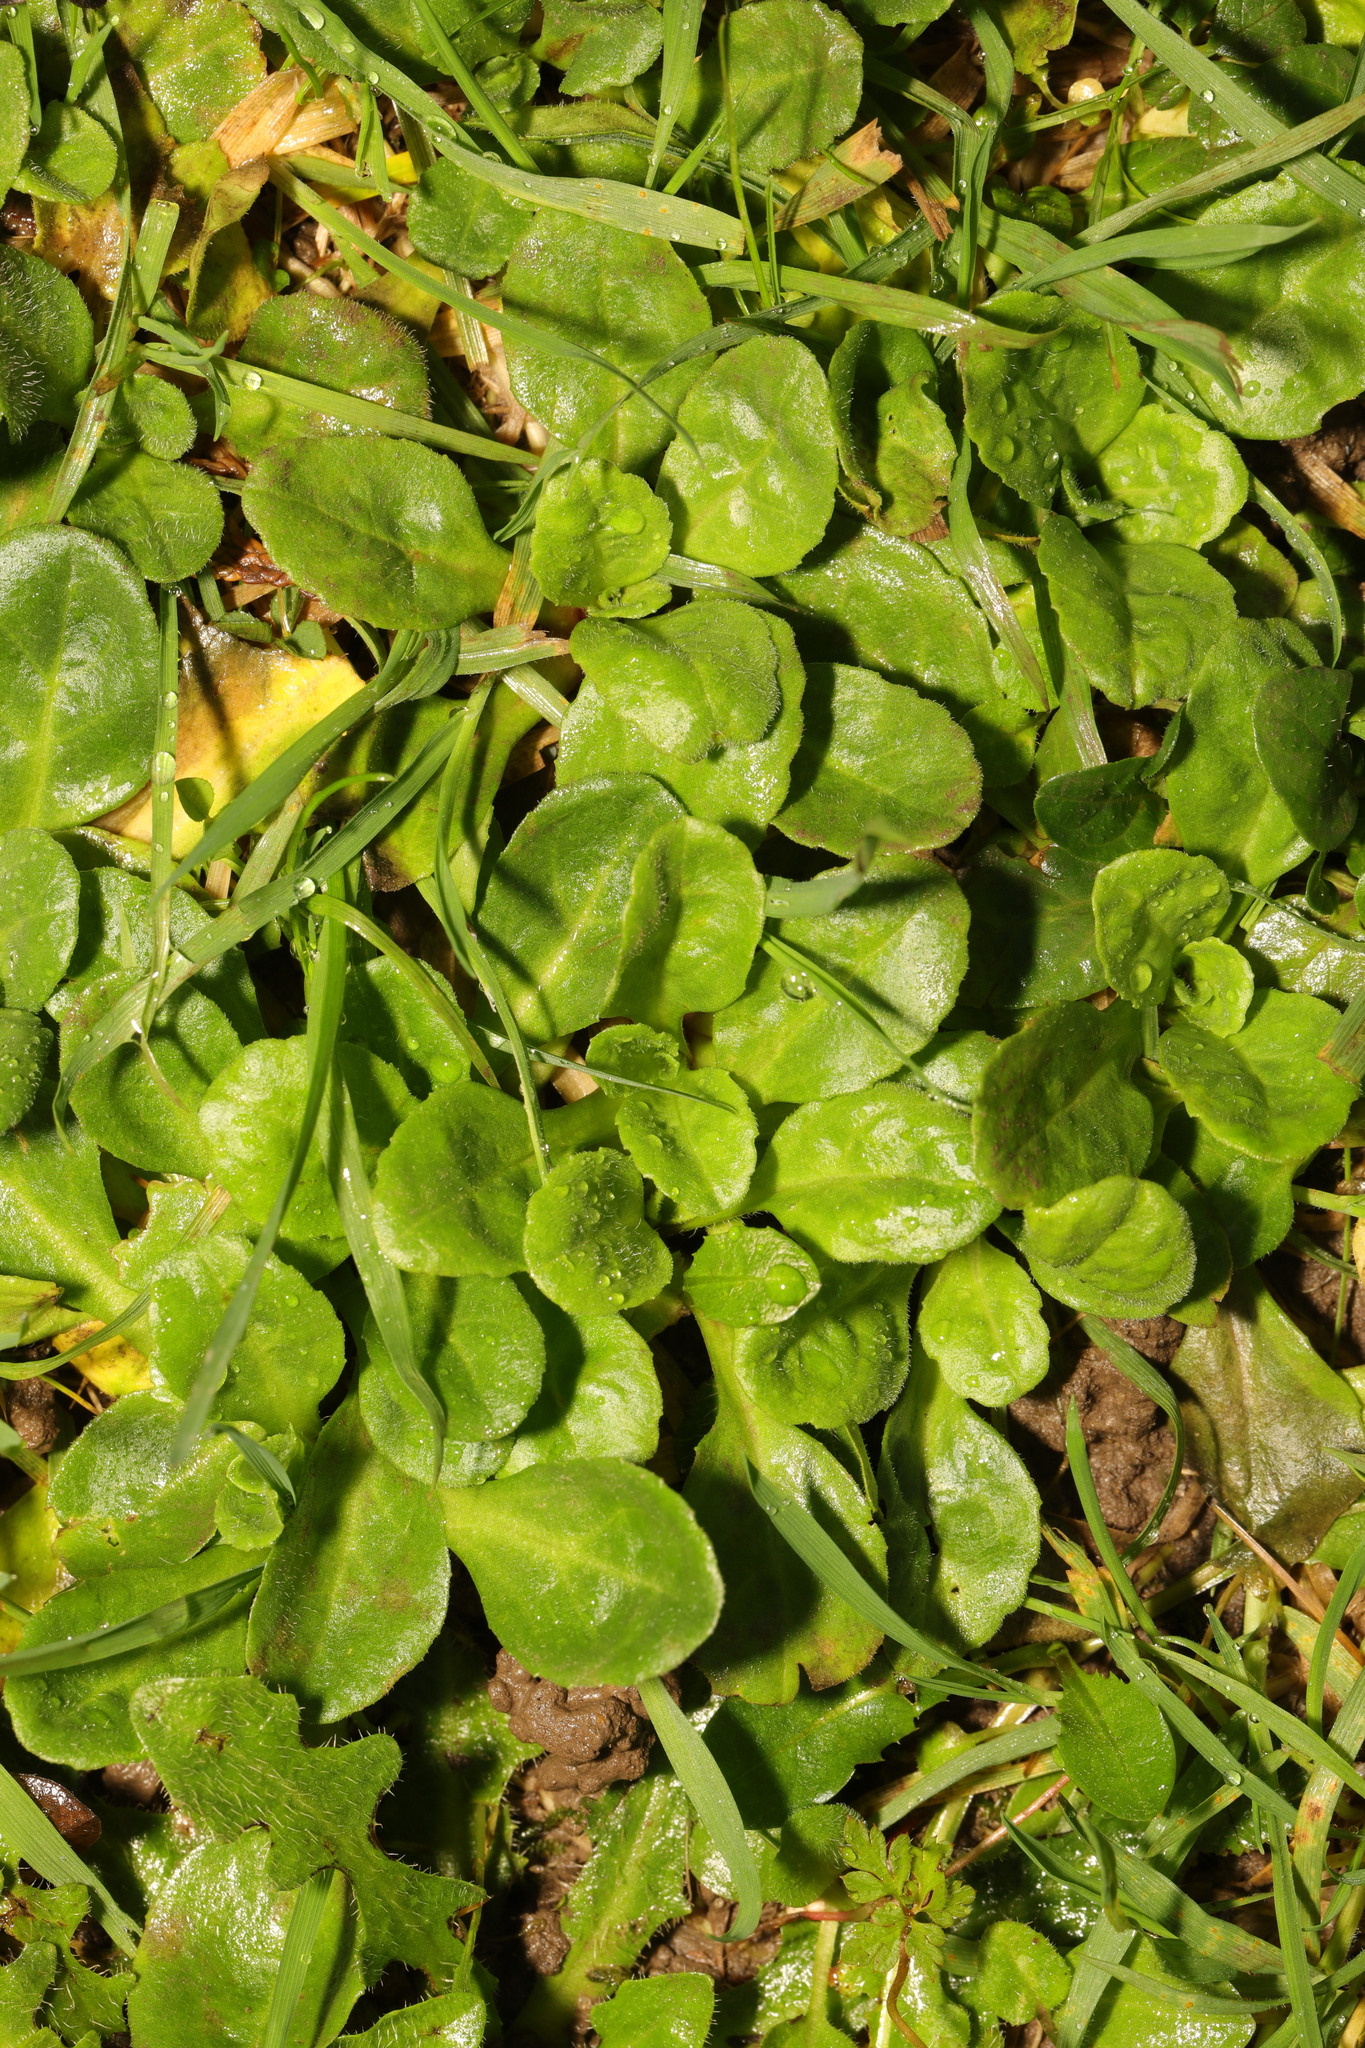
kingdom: Plantae
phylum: Tracheophyta
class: Magnoliopsida
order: Asterales
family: Asteraceae
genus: Bellis
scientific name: Bellis perennis
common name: Lawndaisy
